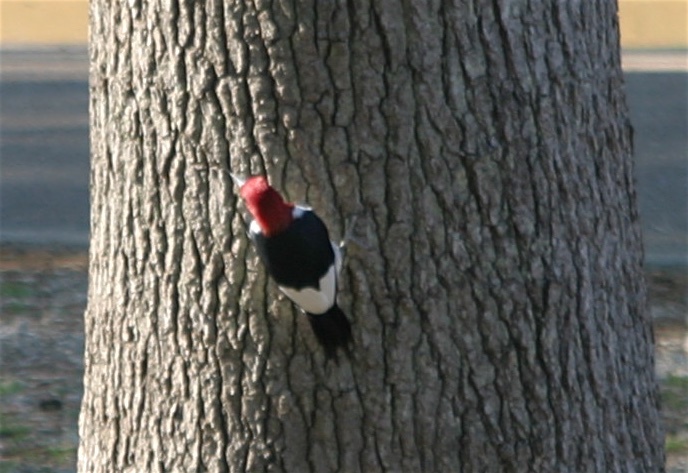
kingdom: Animalia
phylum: Chordata
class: Aves
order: Piciformes
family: Picidae
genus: Melanerpes
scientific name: Melanerpes erythrocephalus
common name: Red-headed woodpecker
